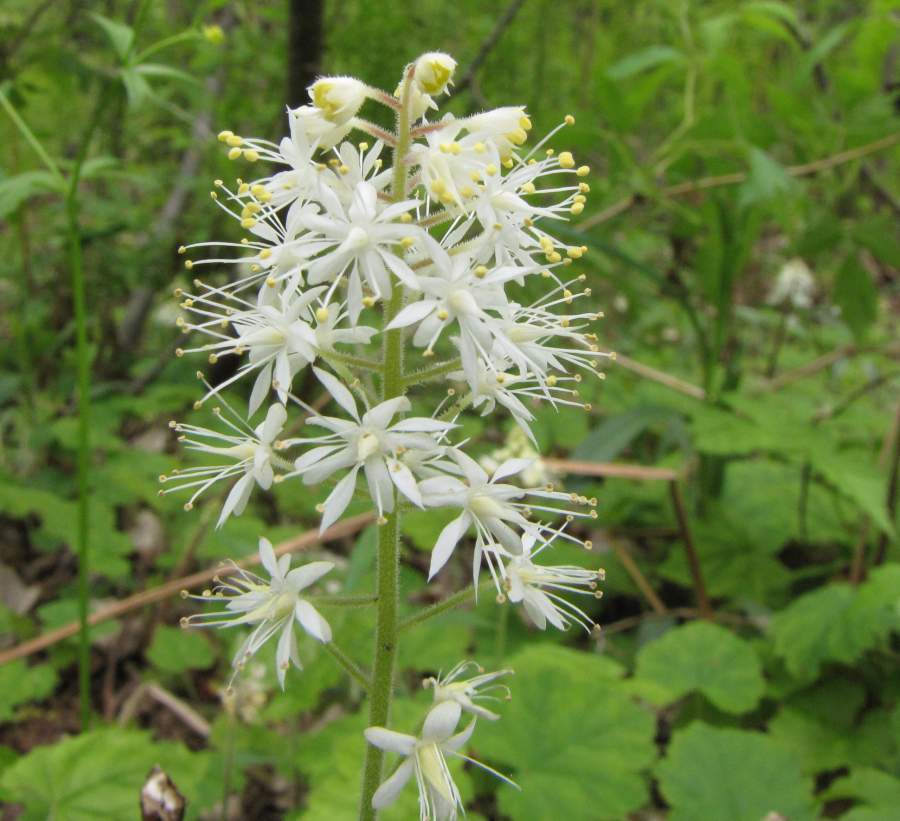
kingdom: Plantae
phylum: Tracheophyta
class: Magnoliopsida
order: Saxifragales
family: Saxifragaceae
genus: Tiarella
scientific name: Tiarella stolonifera
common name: Stoloniferous foamflower
